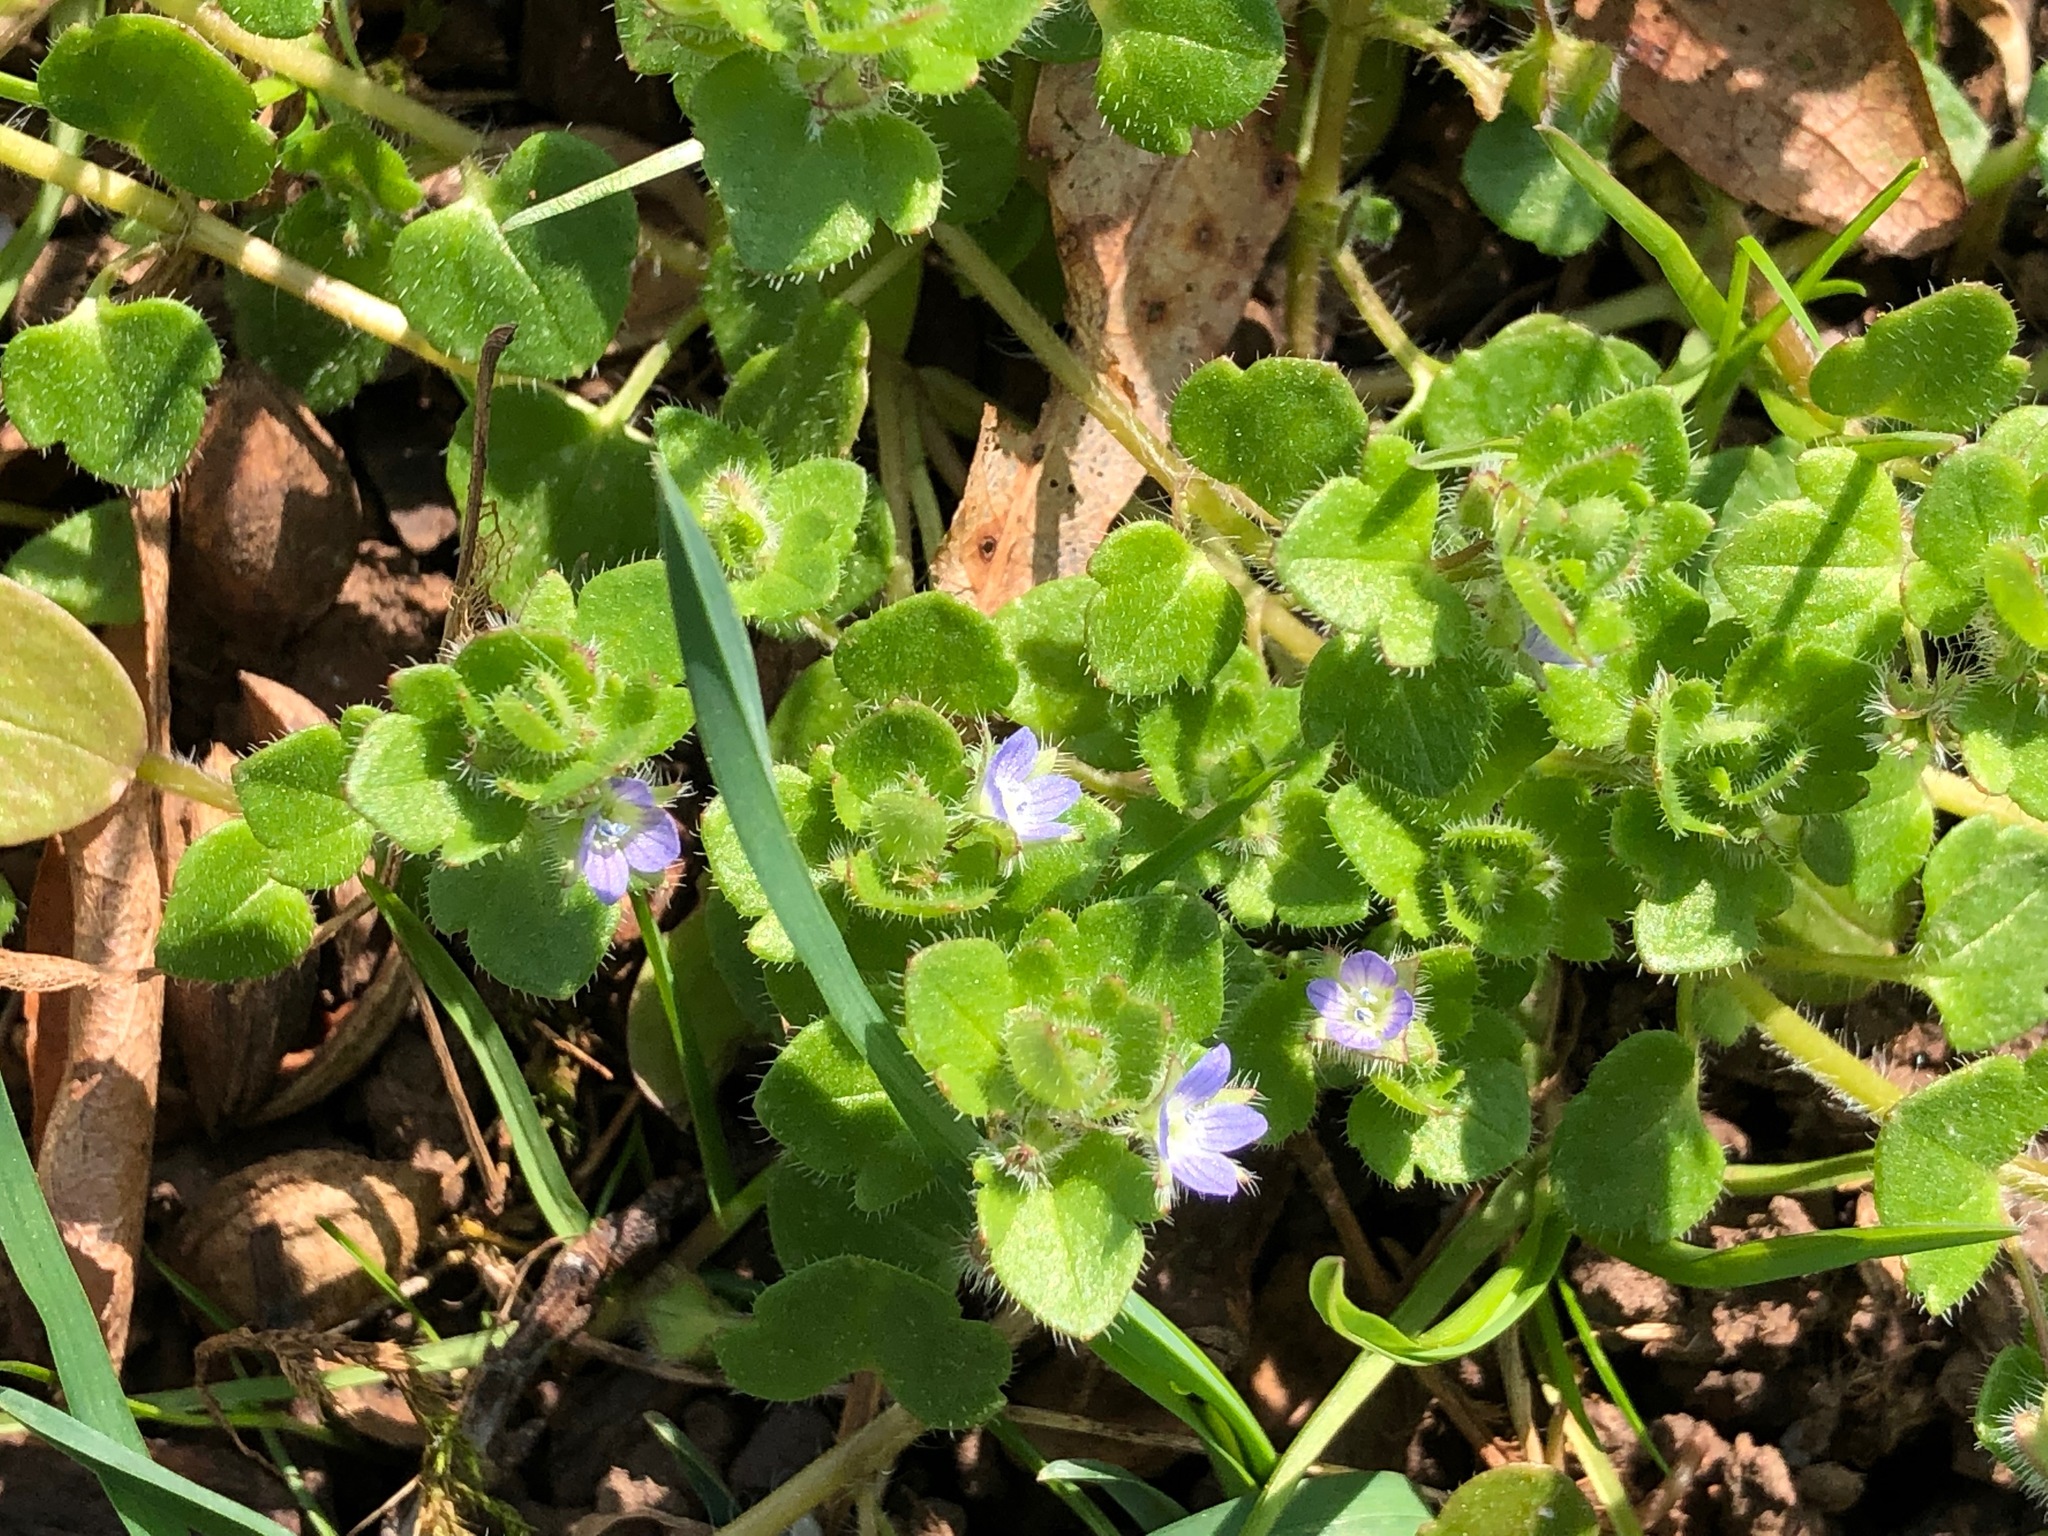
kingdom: Plantae
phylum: Tracheophyta
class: Magnoliopsida
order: Lamiales
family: Plantaginaceae
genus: Veronica
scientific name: Veronica hederifolia
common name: Ivy-leaved speedwell
